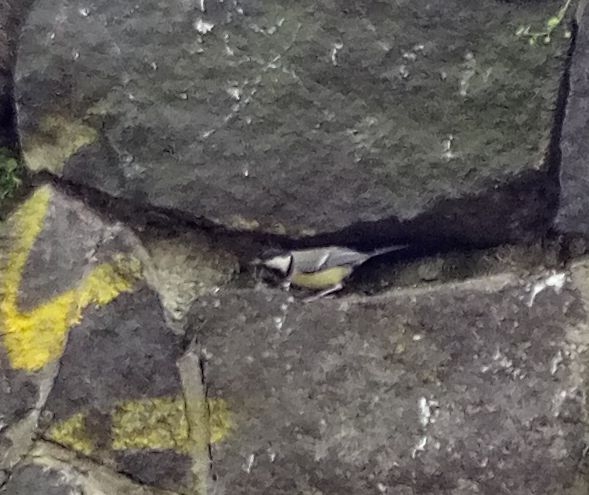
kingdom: Animalia
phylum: Chordata
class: Aves
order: Passeriformes
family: Paridae
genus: Parus
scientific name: Parus major
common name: Great tit
